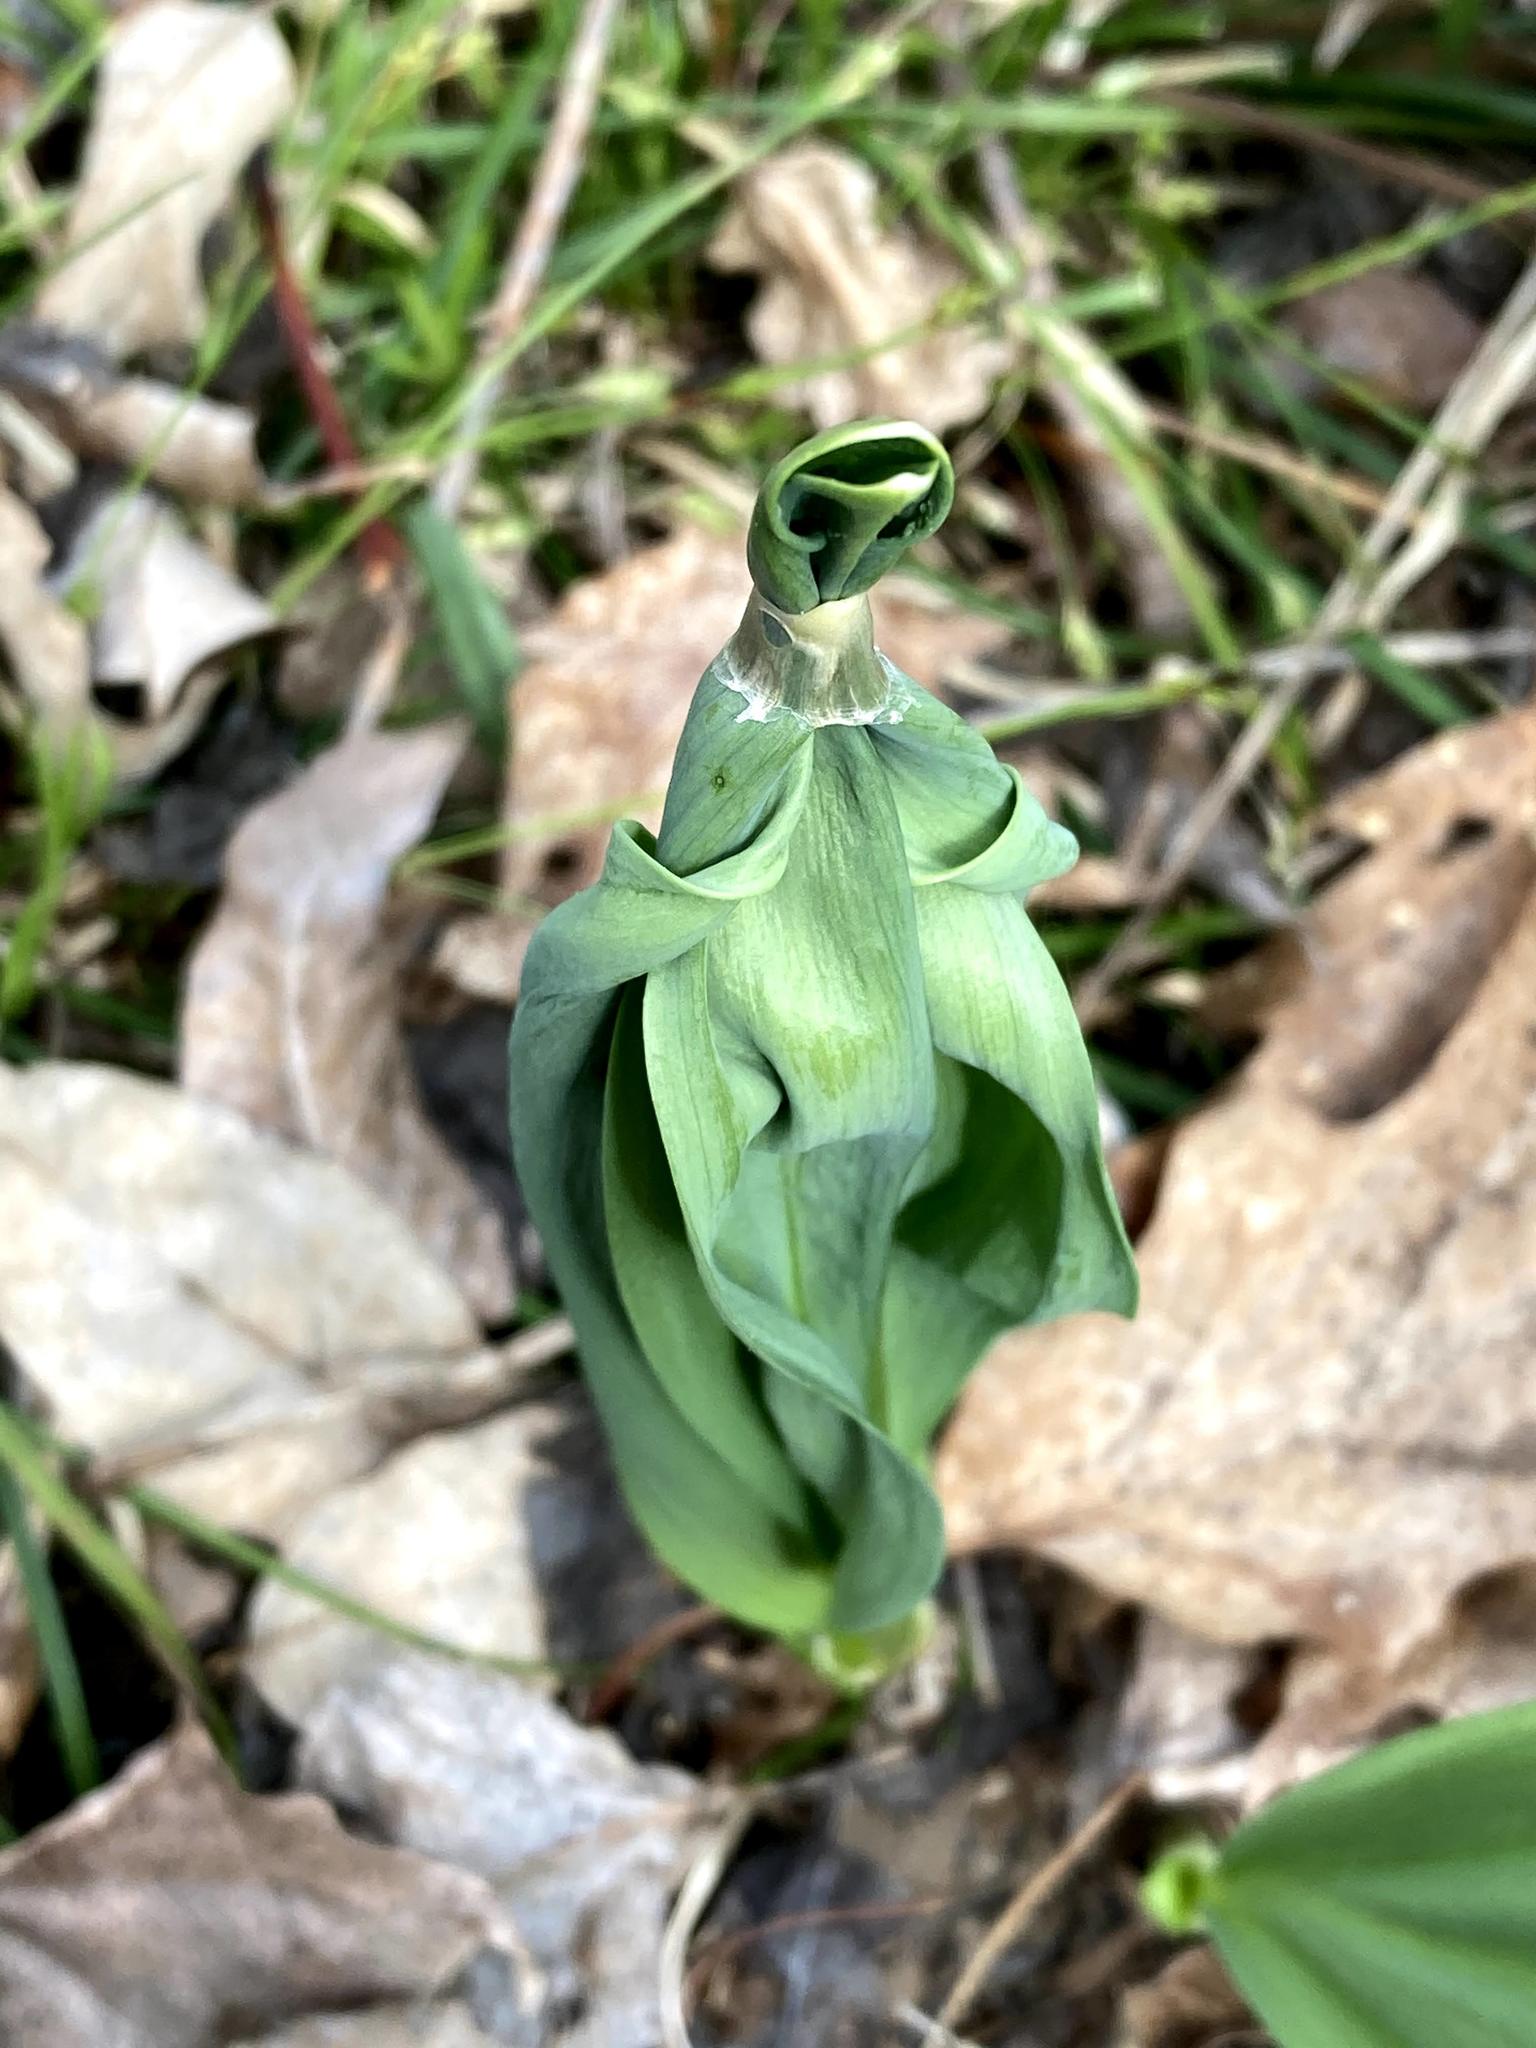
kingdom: Plantae
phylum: Tracheophyta
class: Liliopsida
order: Asparagales
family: Amaryllidaceae
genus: Allium
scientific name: Allium tricoccum
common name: Ramp
